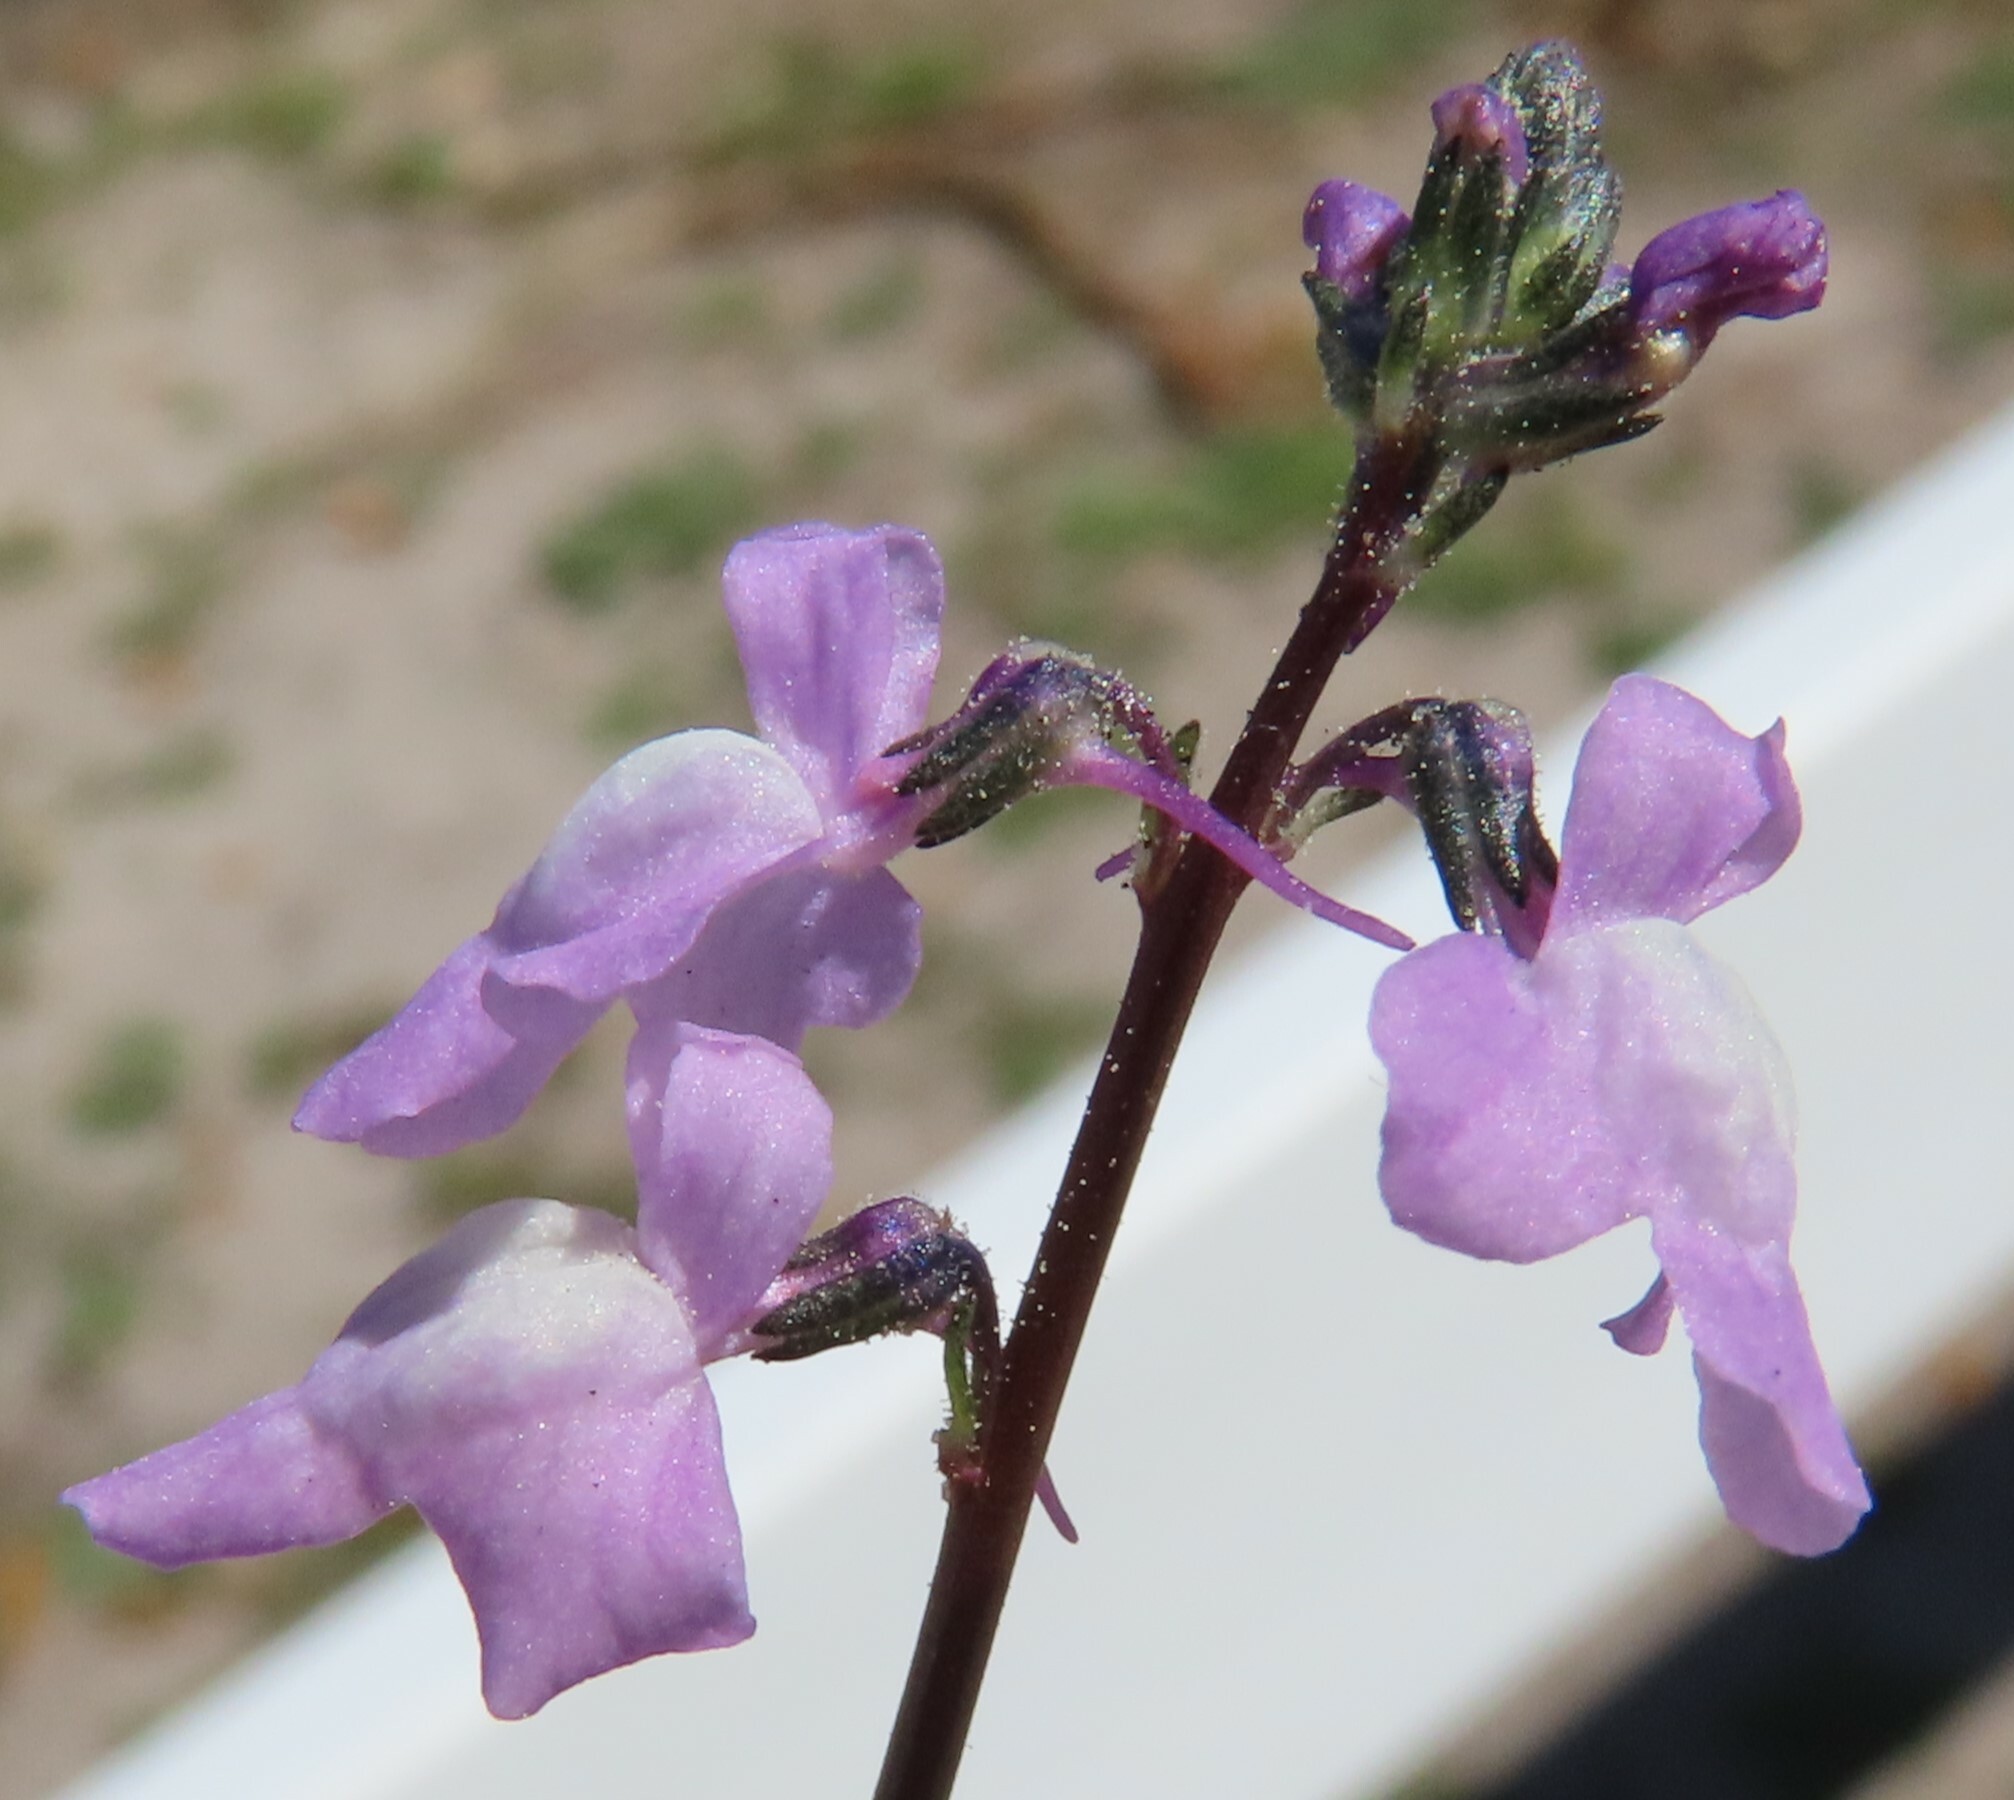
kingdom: Plantae
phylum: Tracheophyta
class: Magnoliopsida
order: Lamiales
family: Plantaginaceae
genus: Nuttallanthus
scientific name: Nuttallanthus canadensis
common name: Blue toadflax
